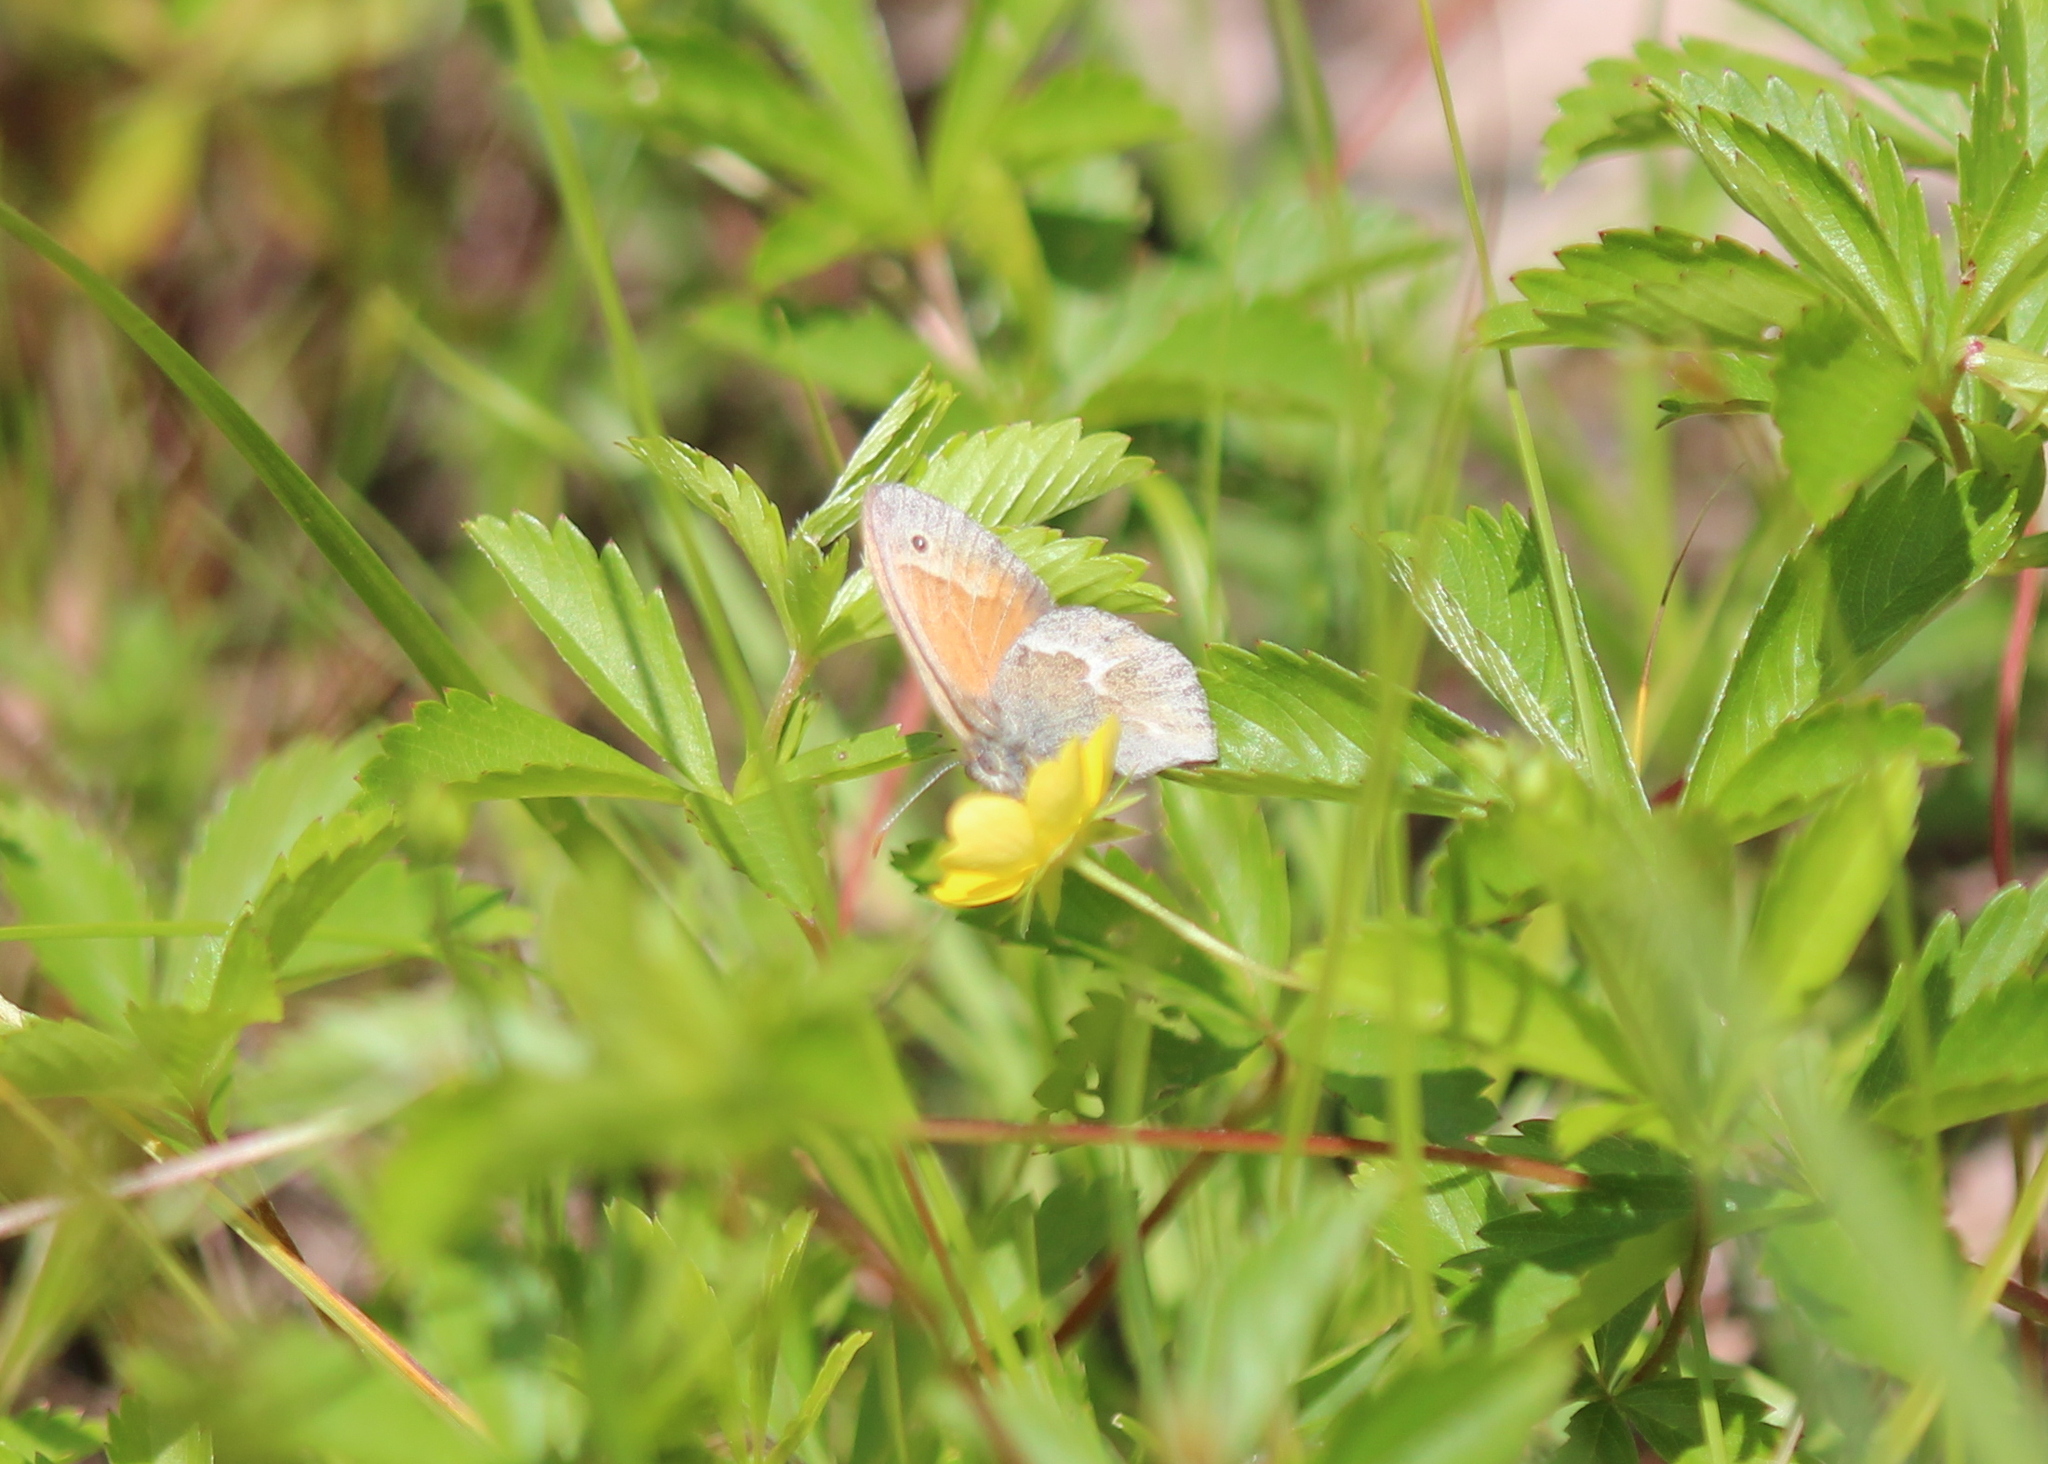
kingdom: Animalia
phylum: Arthropoda
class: Insecta
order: Lepidoptera
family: Nymphalidae
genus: Coenonympha
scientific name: Coenonympha california
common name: Common ringlet
